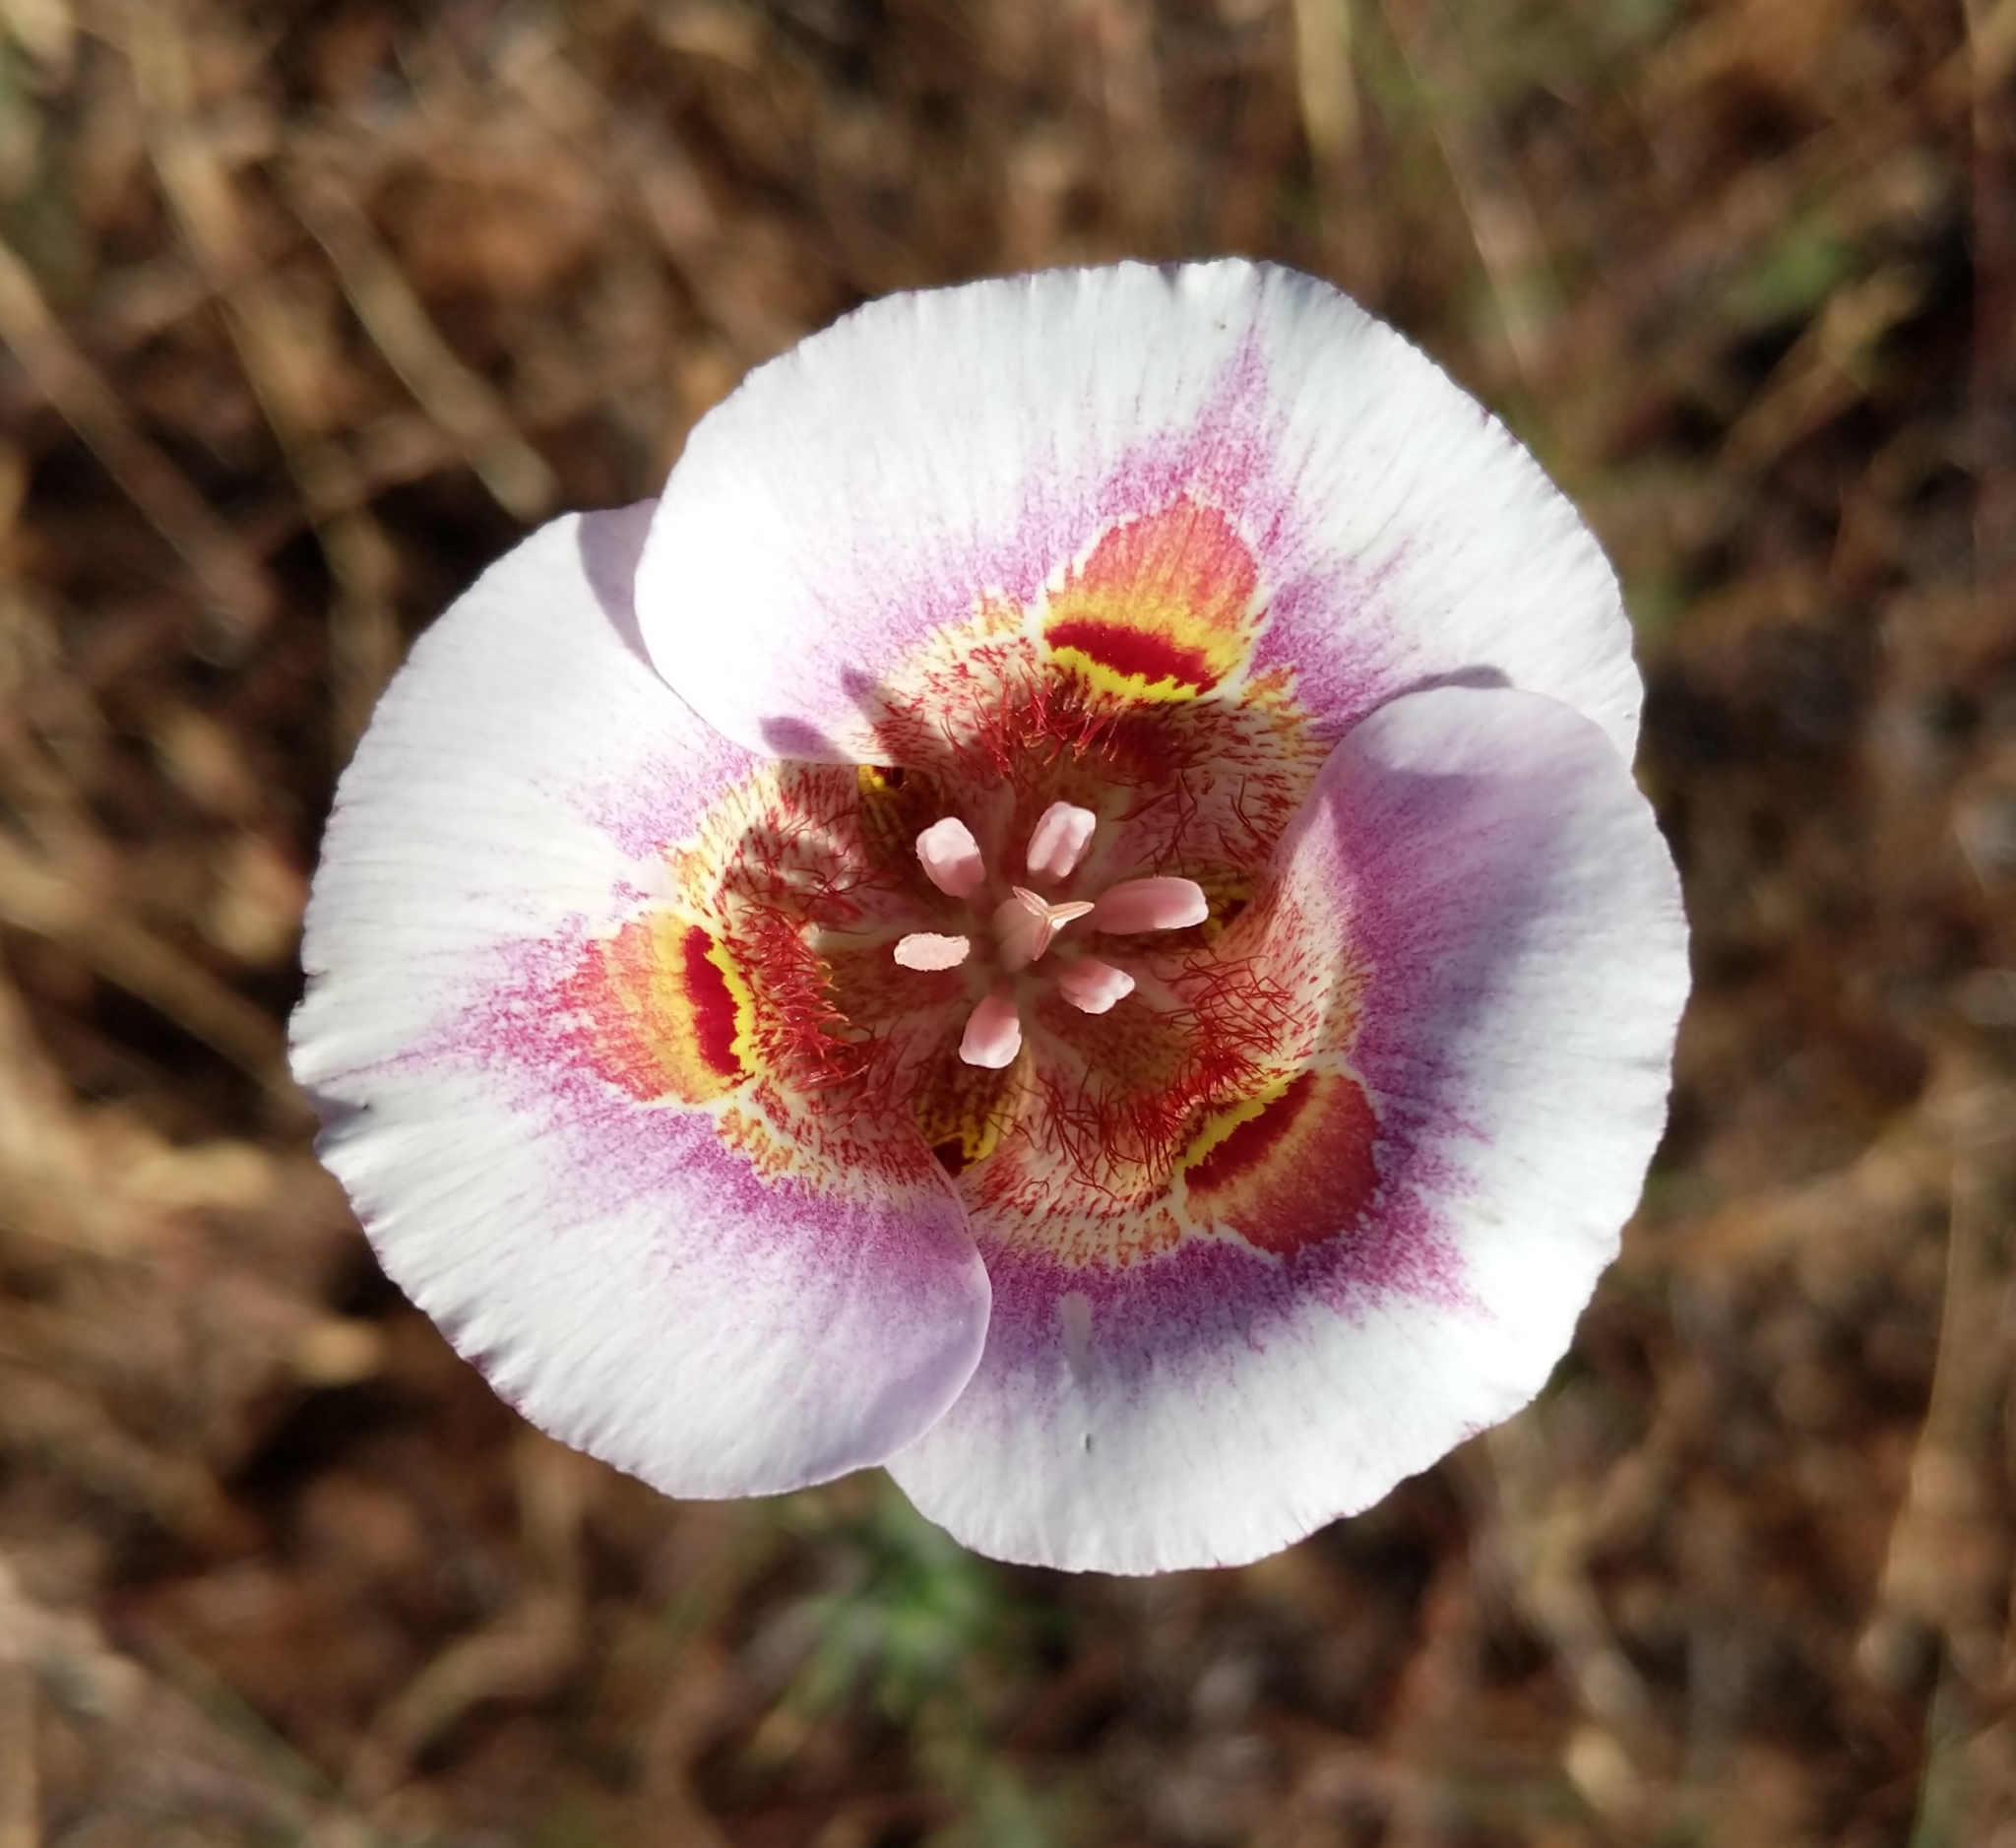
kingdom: Plantae
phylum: Tracheophyta
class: Liliopsida
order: Liliales
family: Liliaceae
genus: Calochortus
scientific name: Calochortus argillosus
